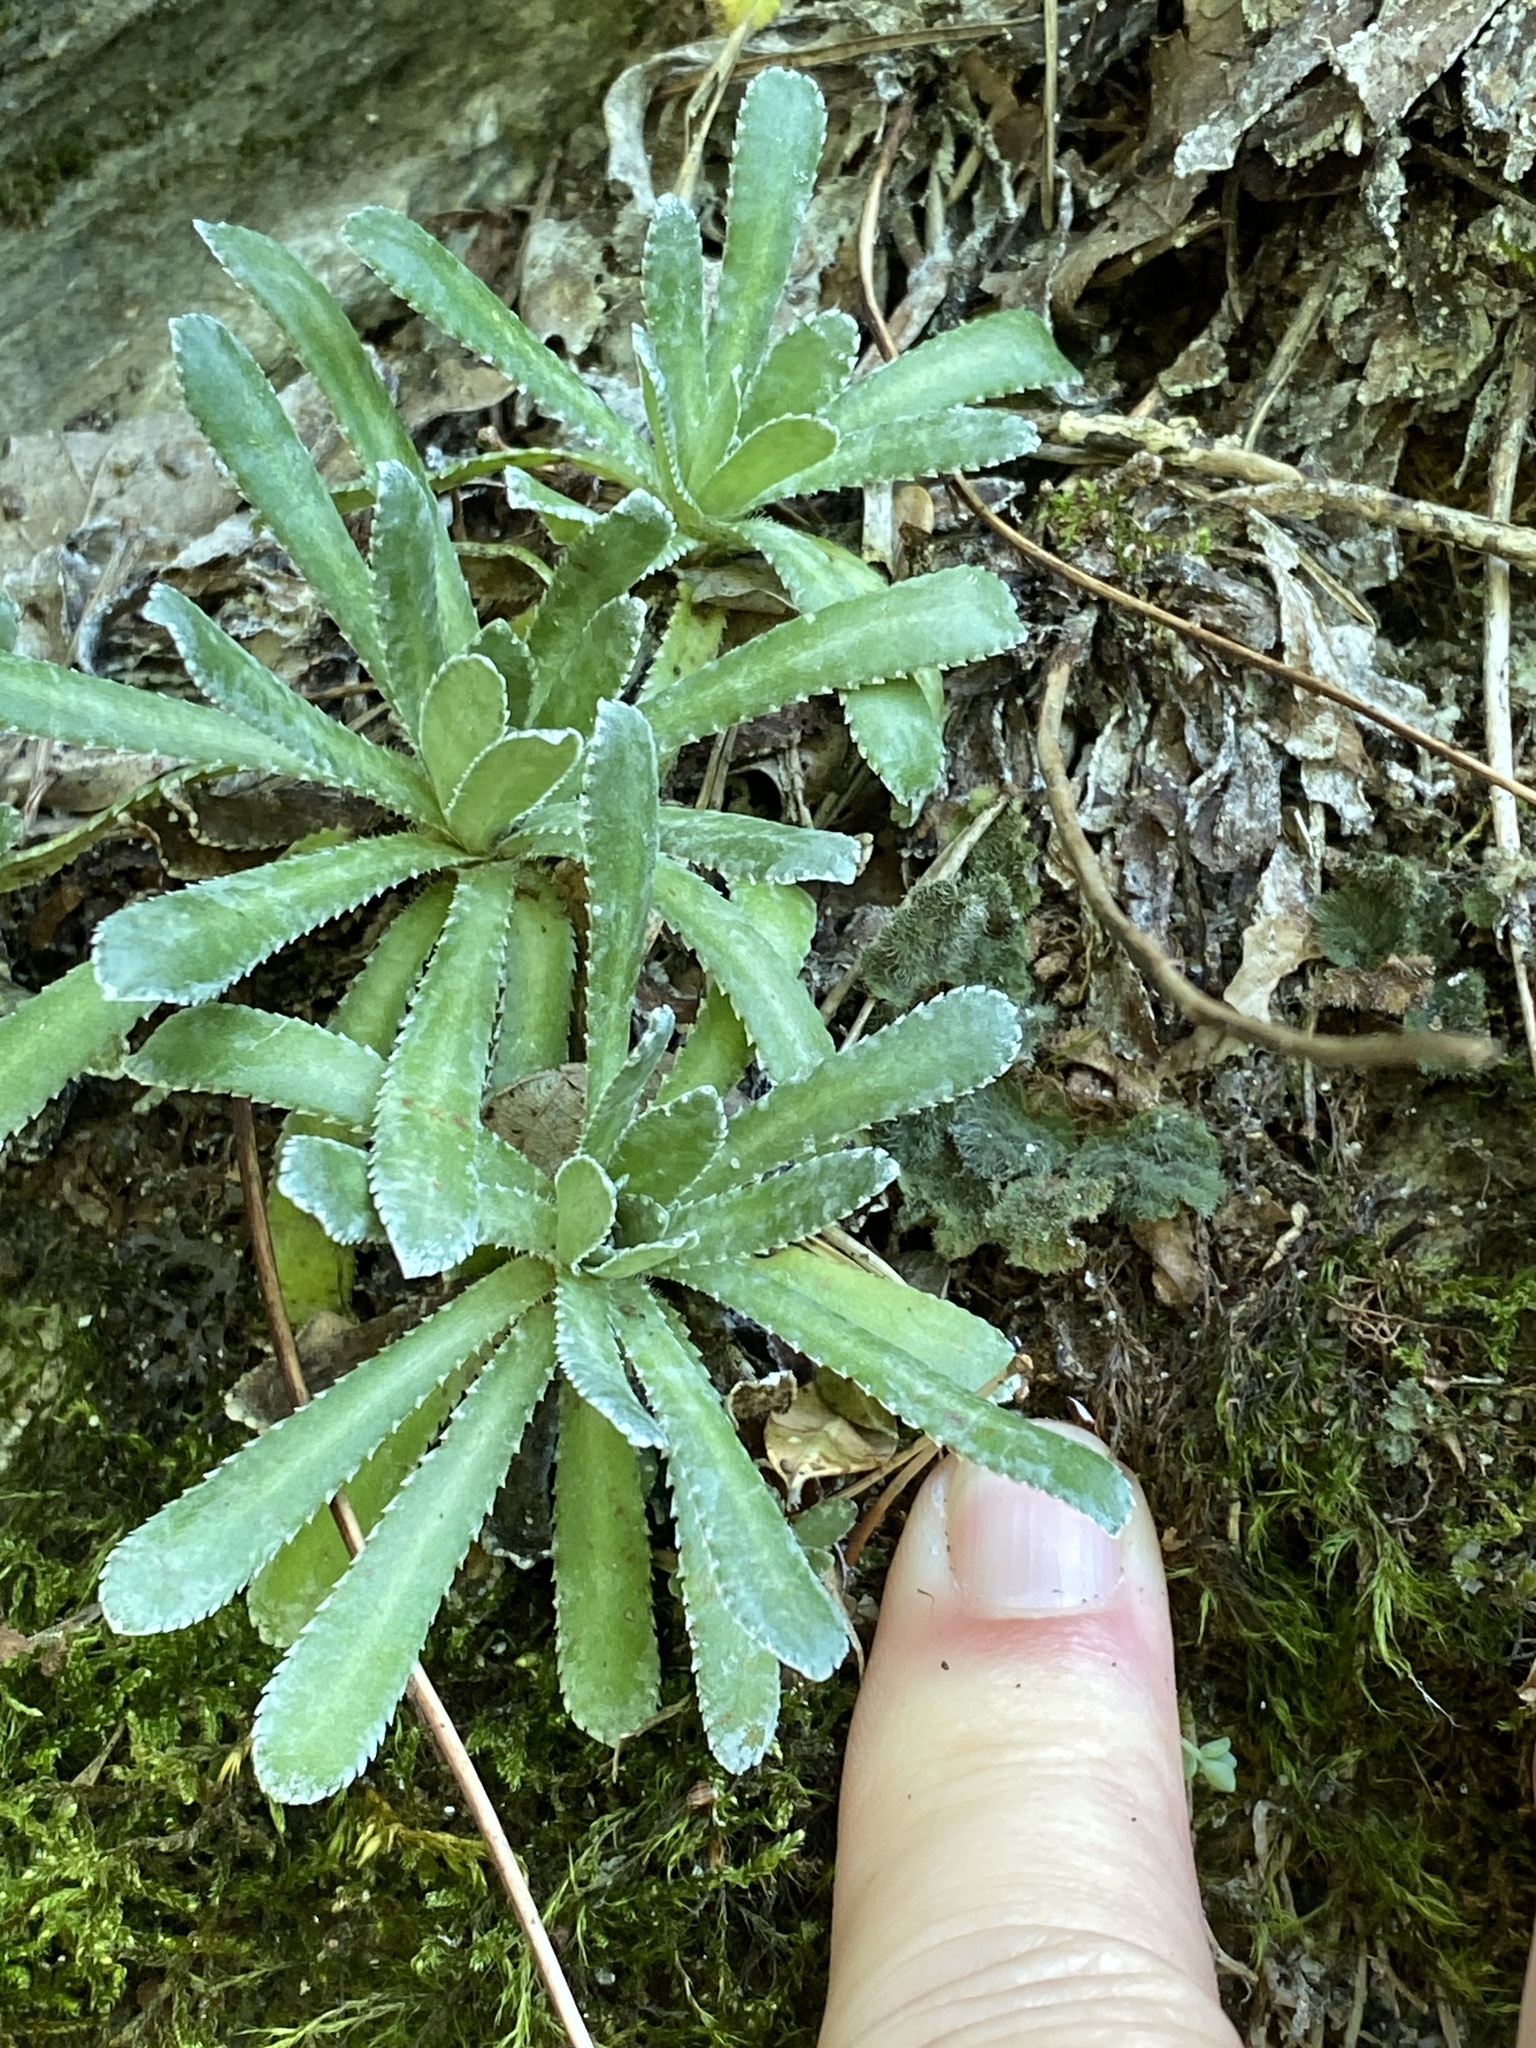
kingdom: Plantae
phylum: Tracheophyta
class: Magnoliopsida
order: Saxifragales
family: Saxifragaceae
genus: Saxifraga
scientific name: Saxifraga paniculata
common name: Livelong saxifrage
